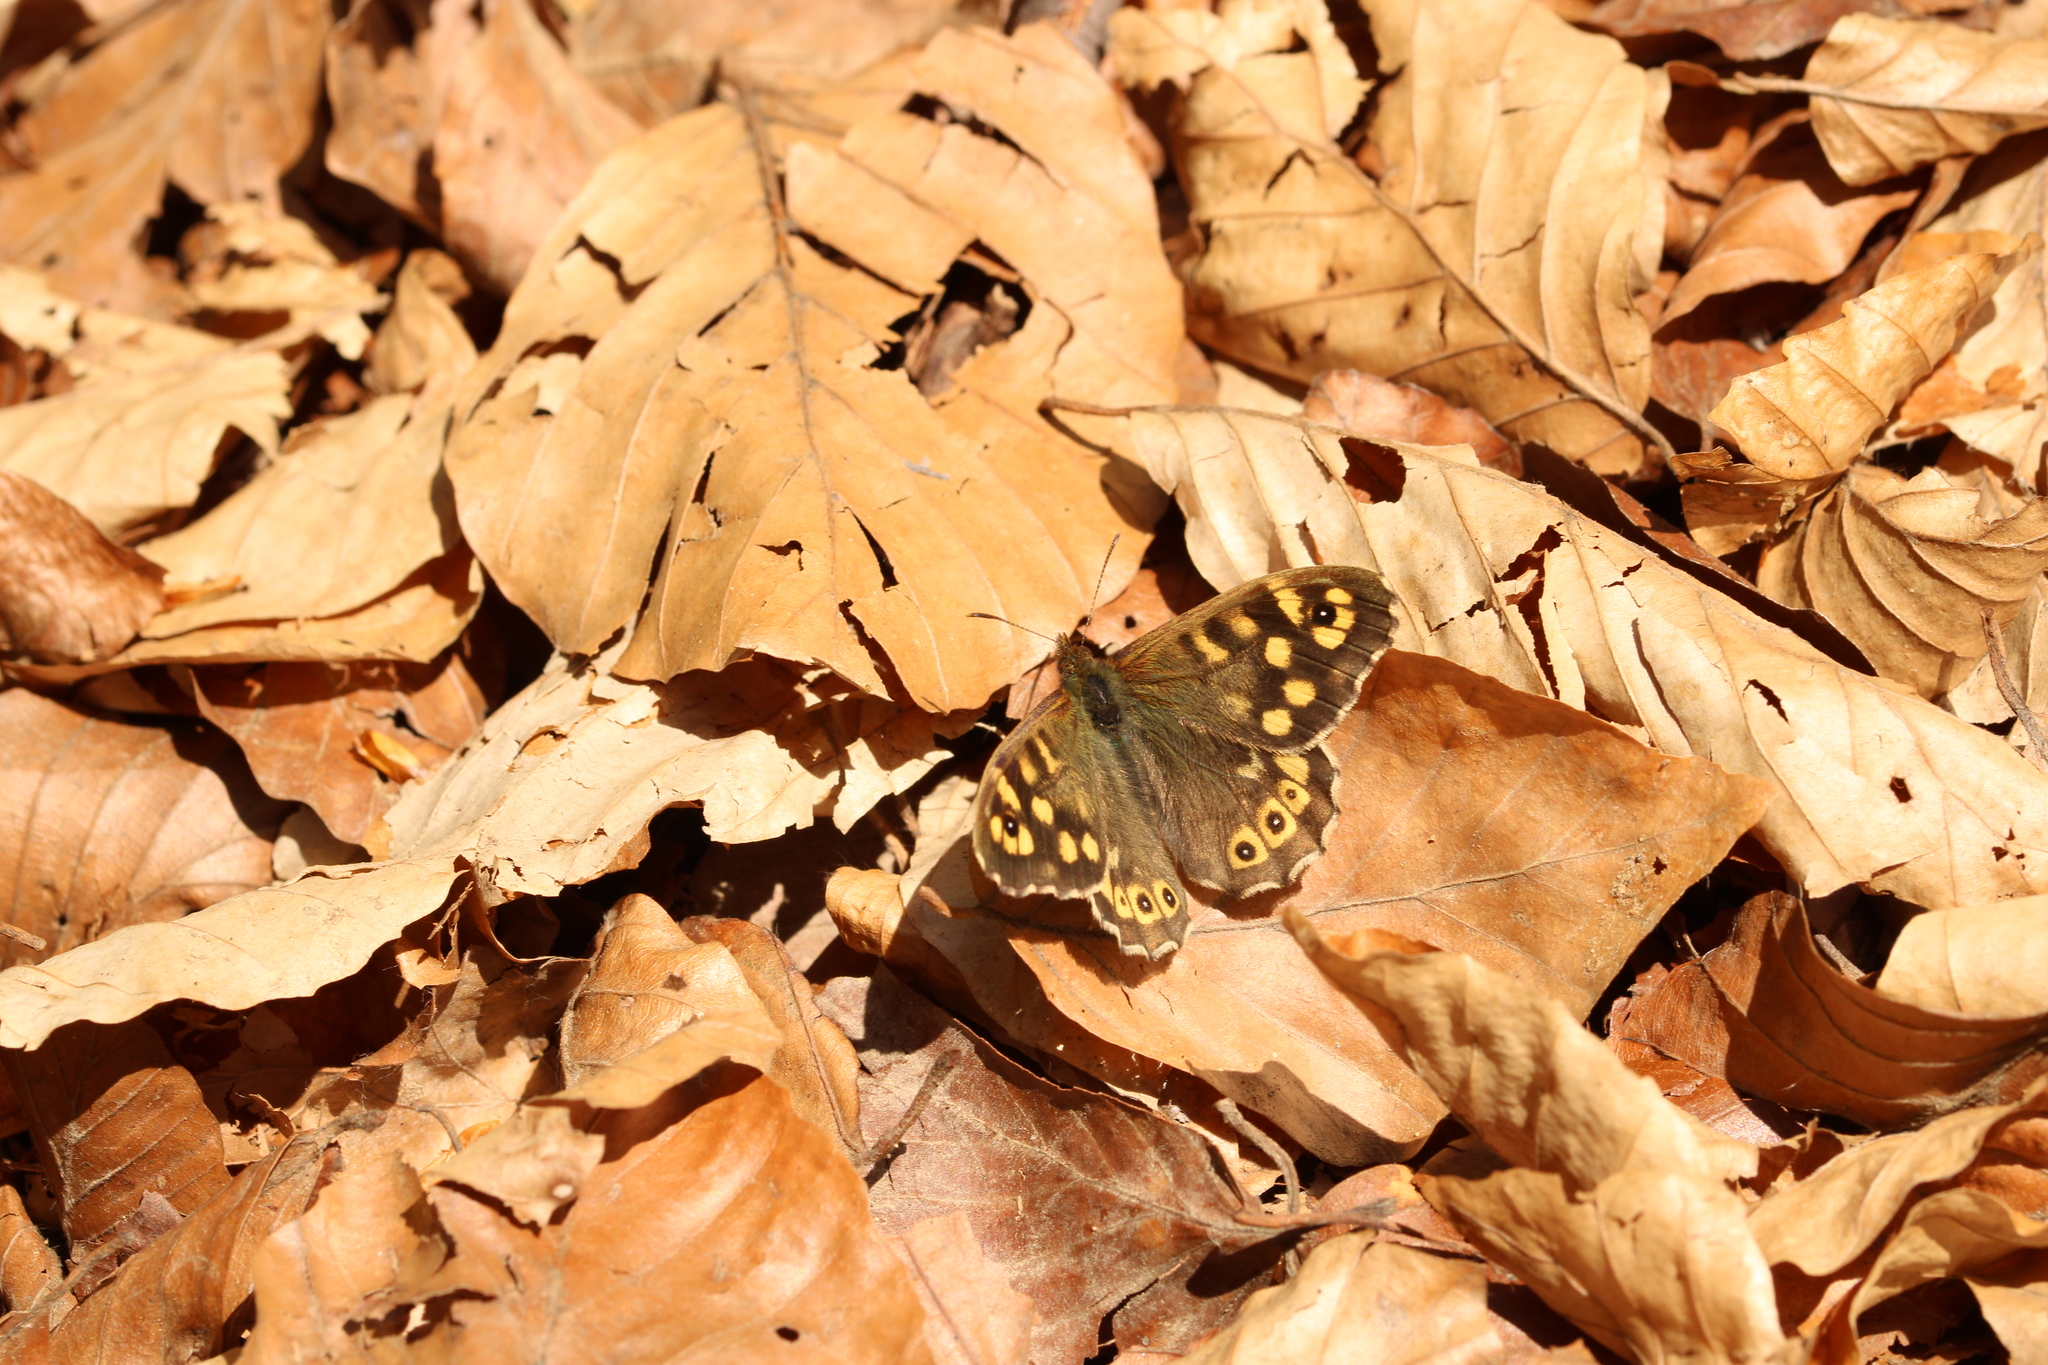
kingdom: Animalia
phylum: Arthropoda
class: Insecta
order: Lepidoptera
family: Nymphalidae
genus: Pararge
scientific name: Pararge aegeria
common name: Speckled wood
